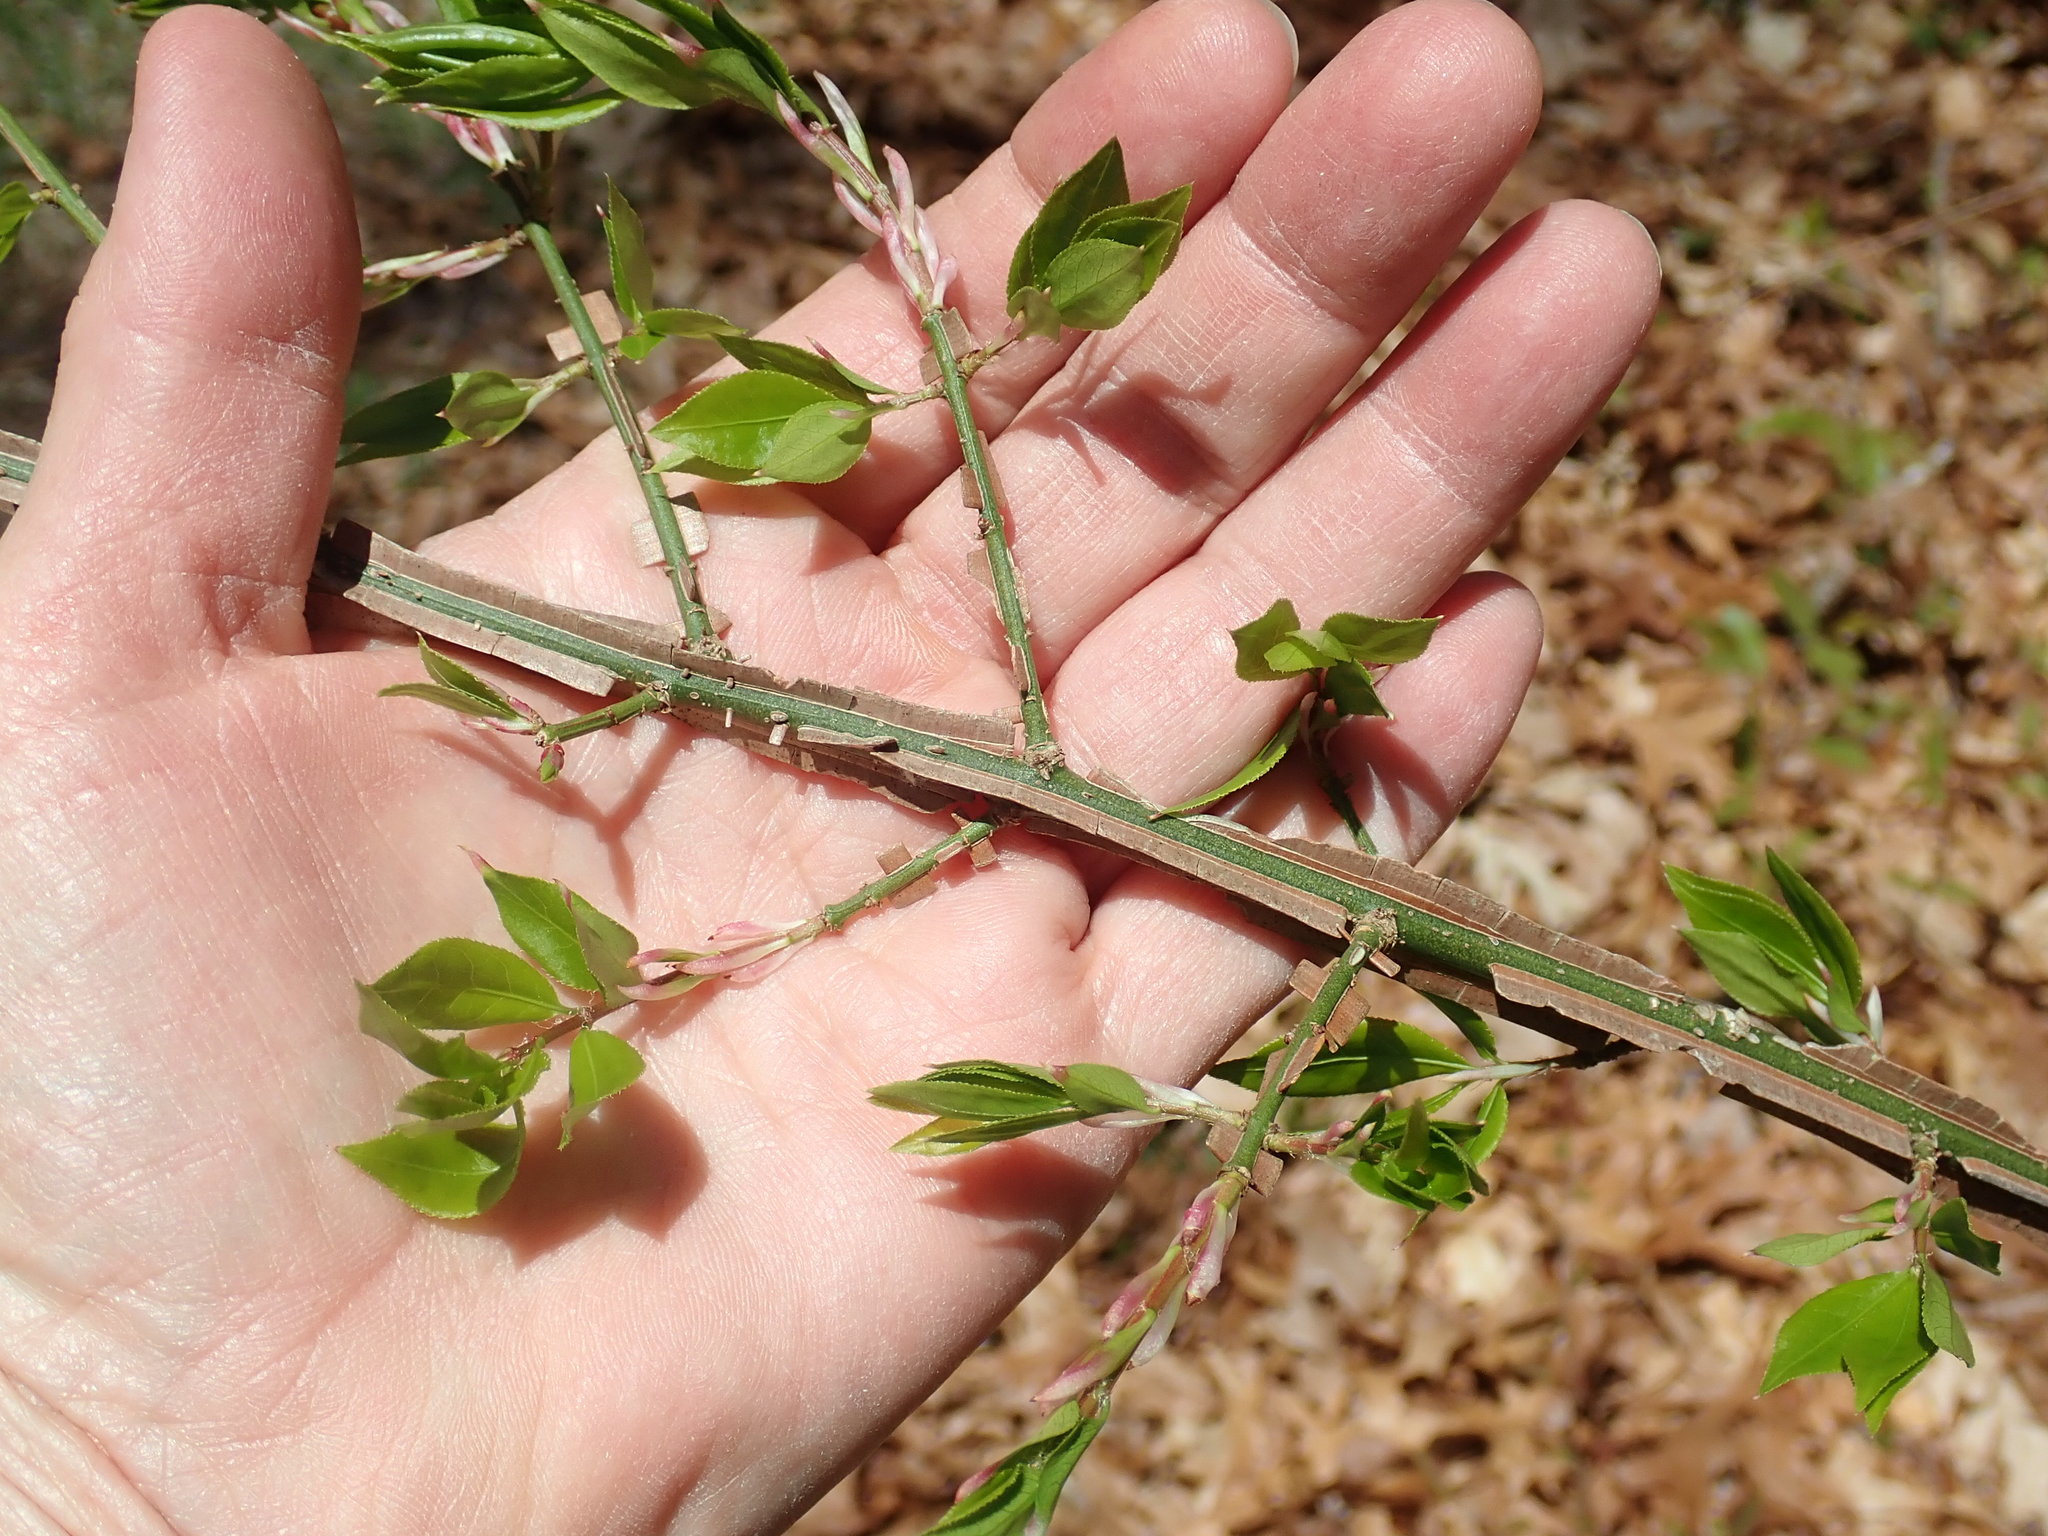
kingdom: Plantae
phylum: Tracheophyta
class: Magnoliopsida
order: Celastrales
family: Celastraceae
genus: Euonymus
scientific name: Euonymus alatus
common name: Winged euonymus
